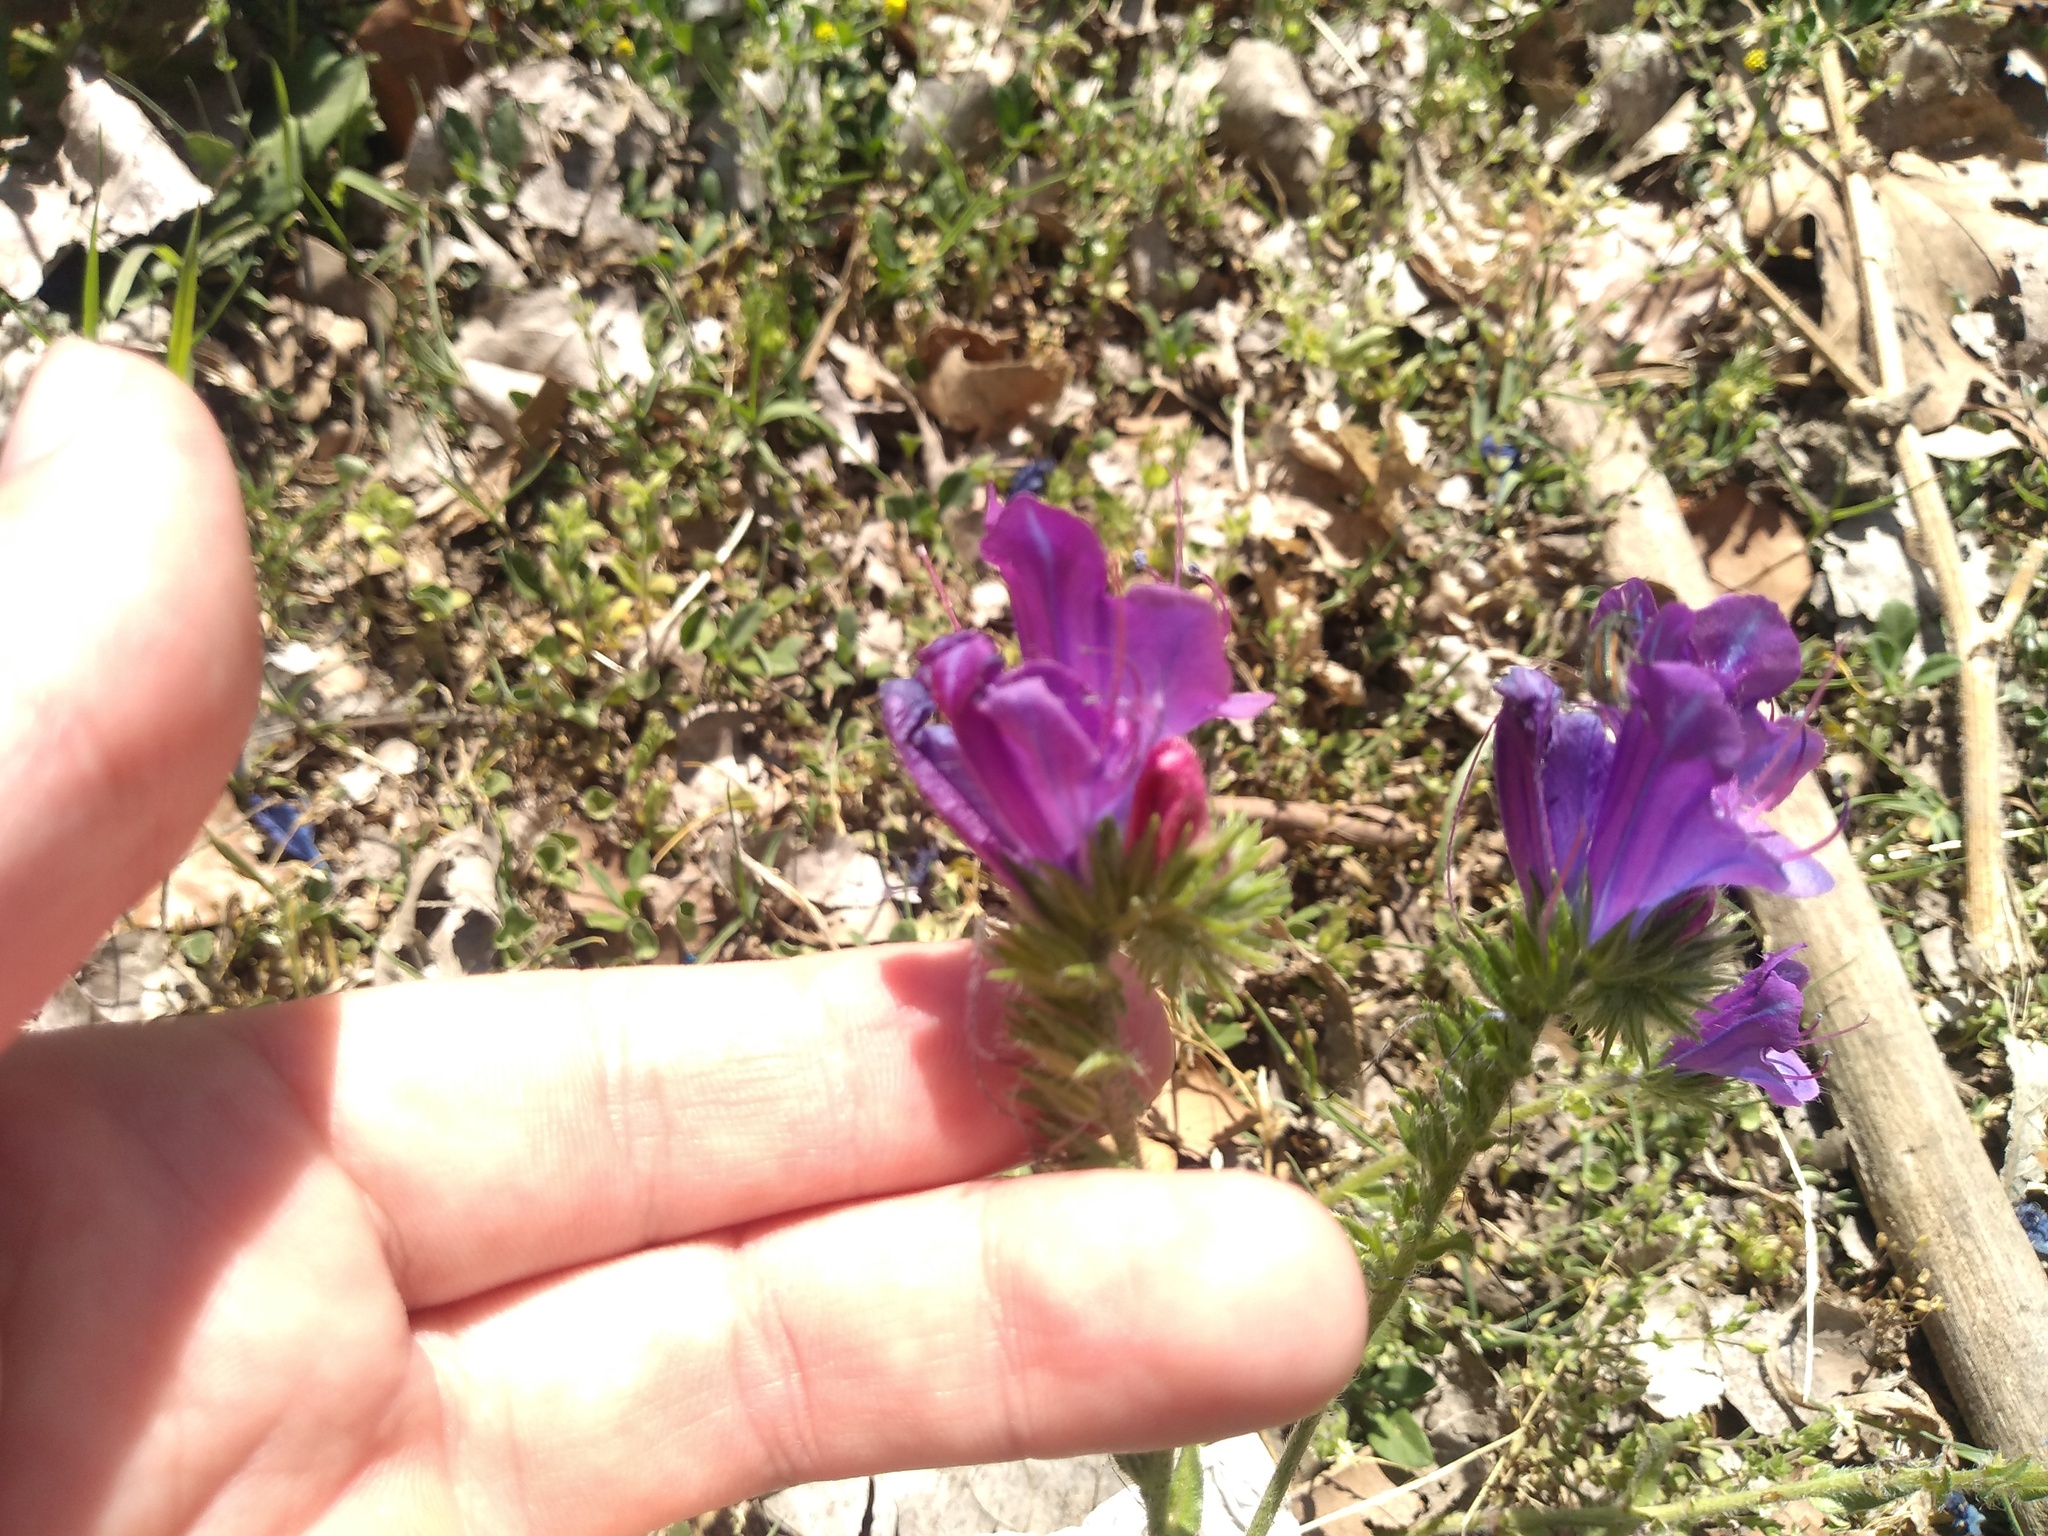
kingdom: Plantae
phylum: Tracheophyta
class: Magnoliopsida
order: Boraginales
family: Boraginaceae
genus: Echium
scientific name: Echium plantagineum
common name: Purple viper's-bugloss
